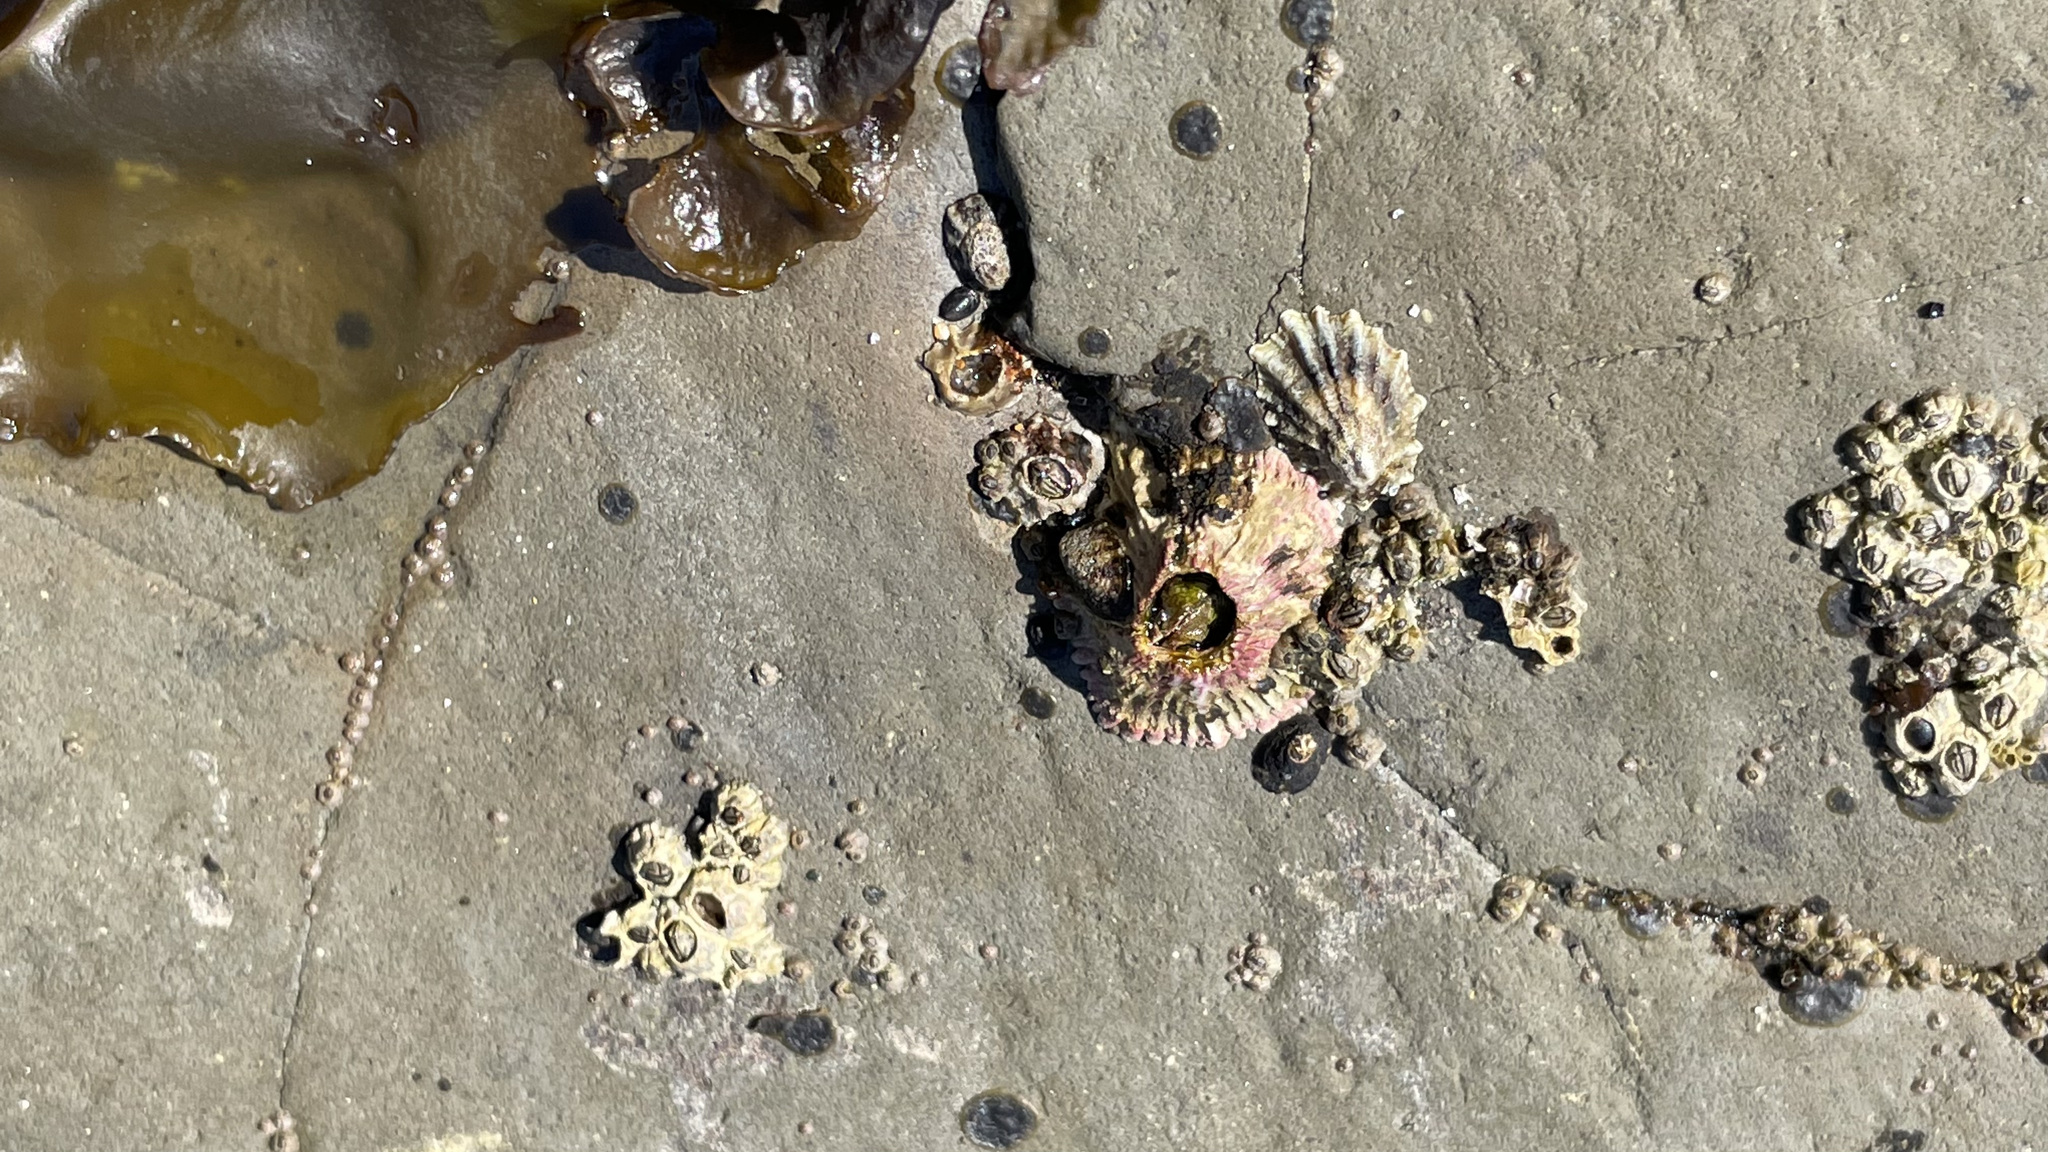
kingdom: Animalia
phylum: Arthropoda
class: Maxillopoda
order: Sessilia
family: Tetraclitidae
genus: Tetraclita
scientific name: Tetraclita rubescens
